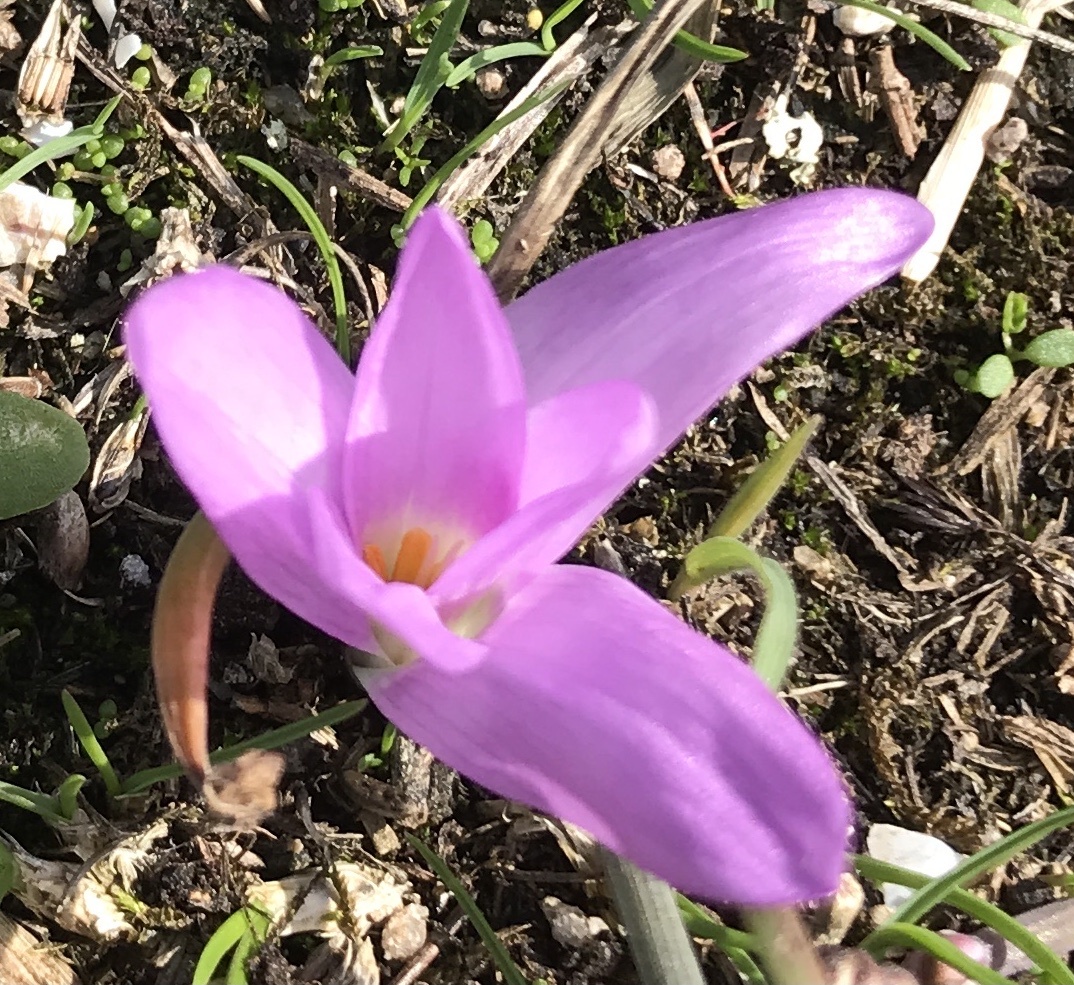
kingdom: Plantae
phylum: Tracheophyta
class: Liliopsida
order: Liliales
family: Colchicaceae
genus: Colchicum
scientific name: Colchicum montanum
